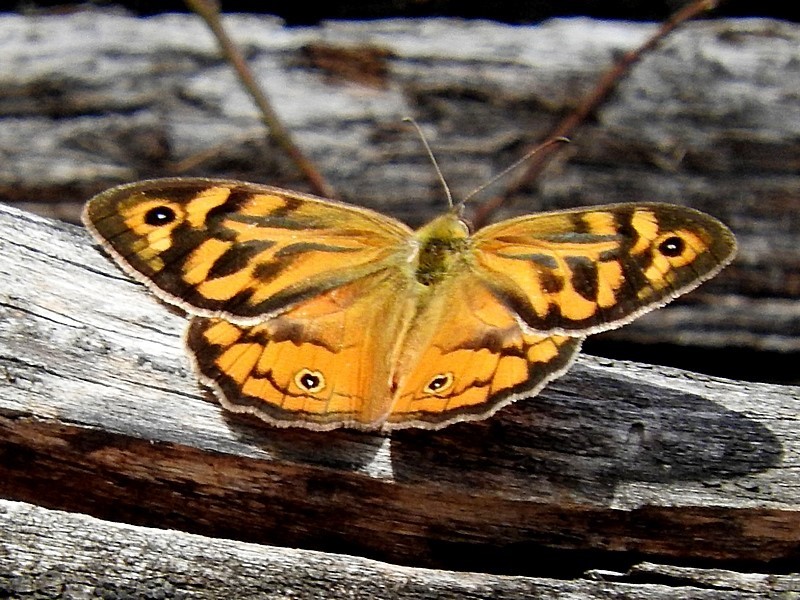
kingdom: Animalia
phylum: Arthropoda
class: Insecta
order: Lepidoptera
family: Nymphalidae
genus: Heteronympha
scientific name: Heteronympha merope
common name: Common brown
